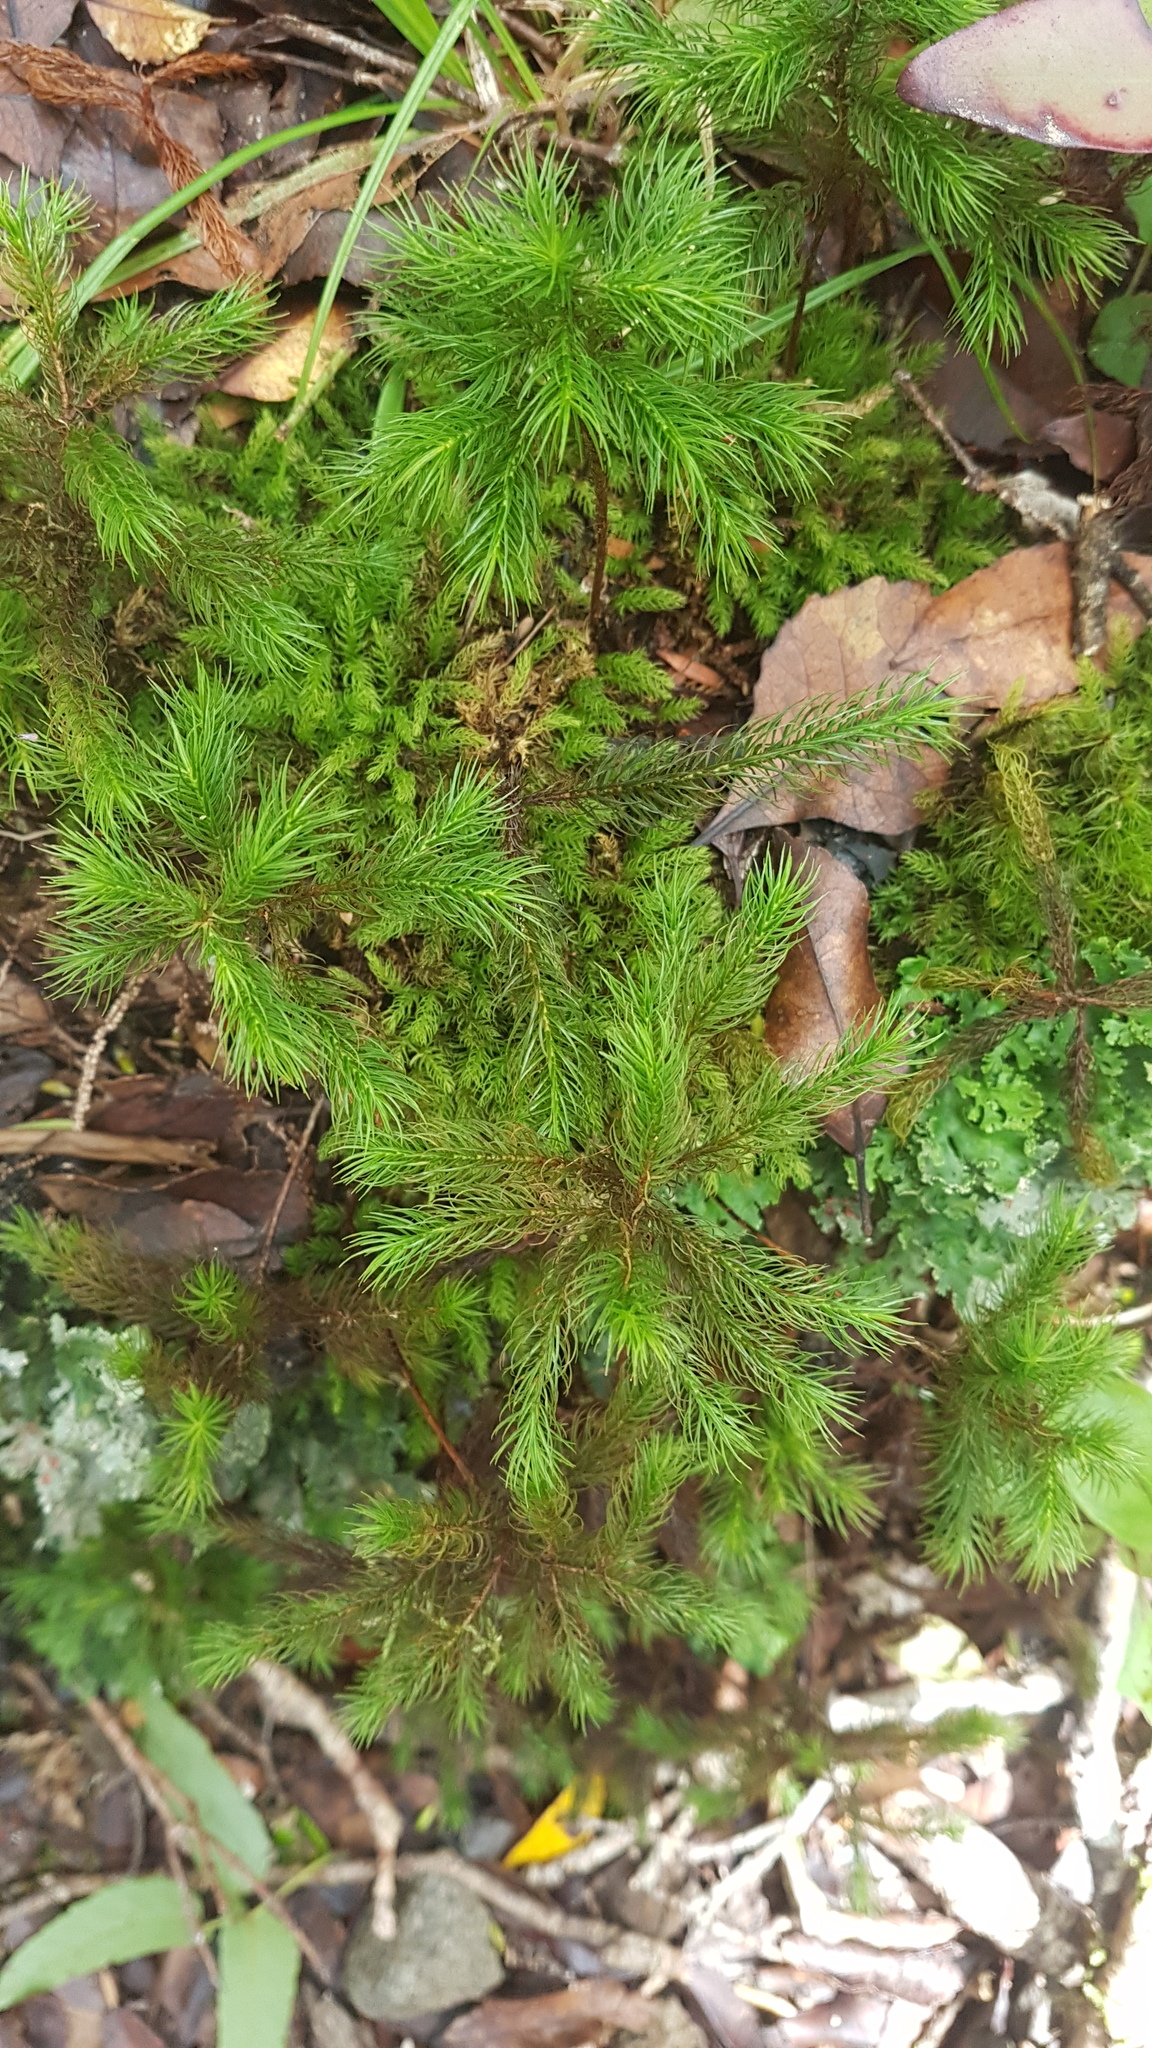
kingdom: Plantae
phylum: Bryophyta
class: Polytrichopsida
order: Polytrichales
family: Polytrichaceae
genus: Dendroligotrichum
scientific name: Dendroligotrichum tongariroense
